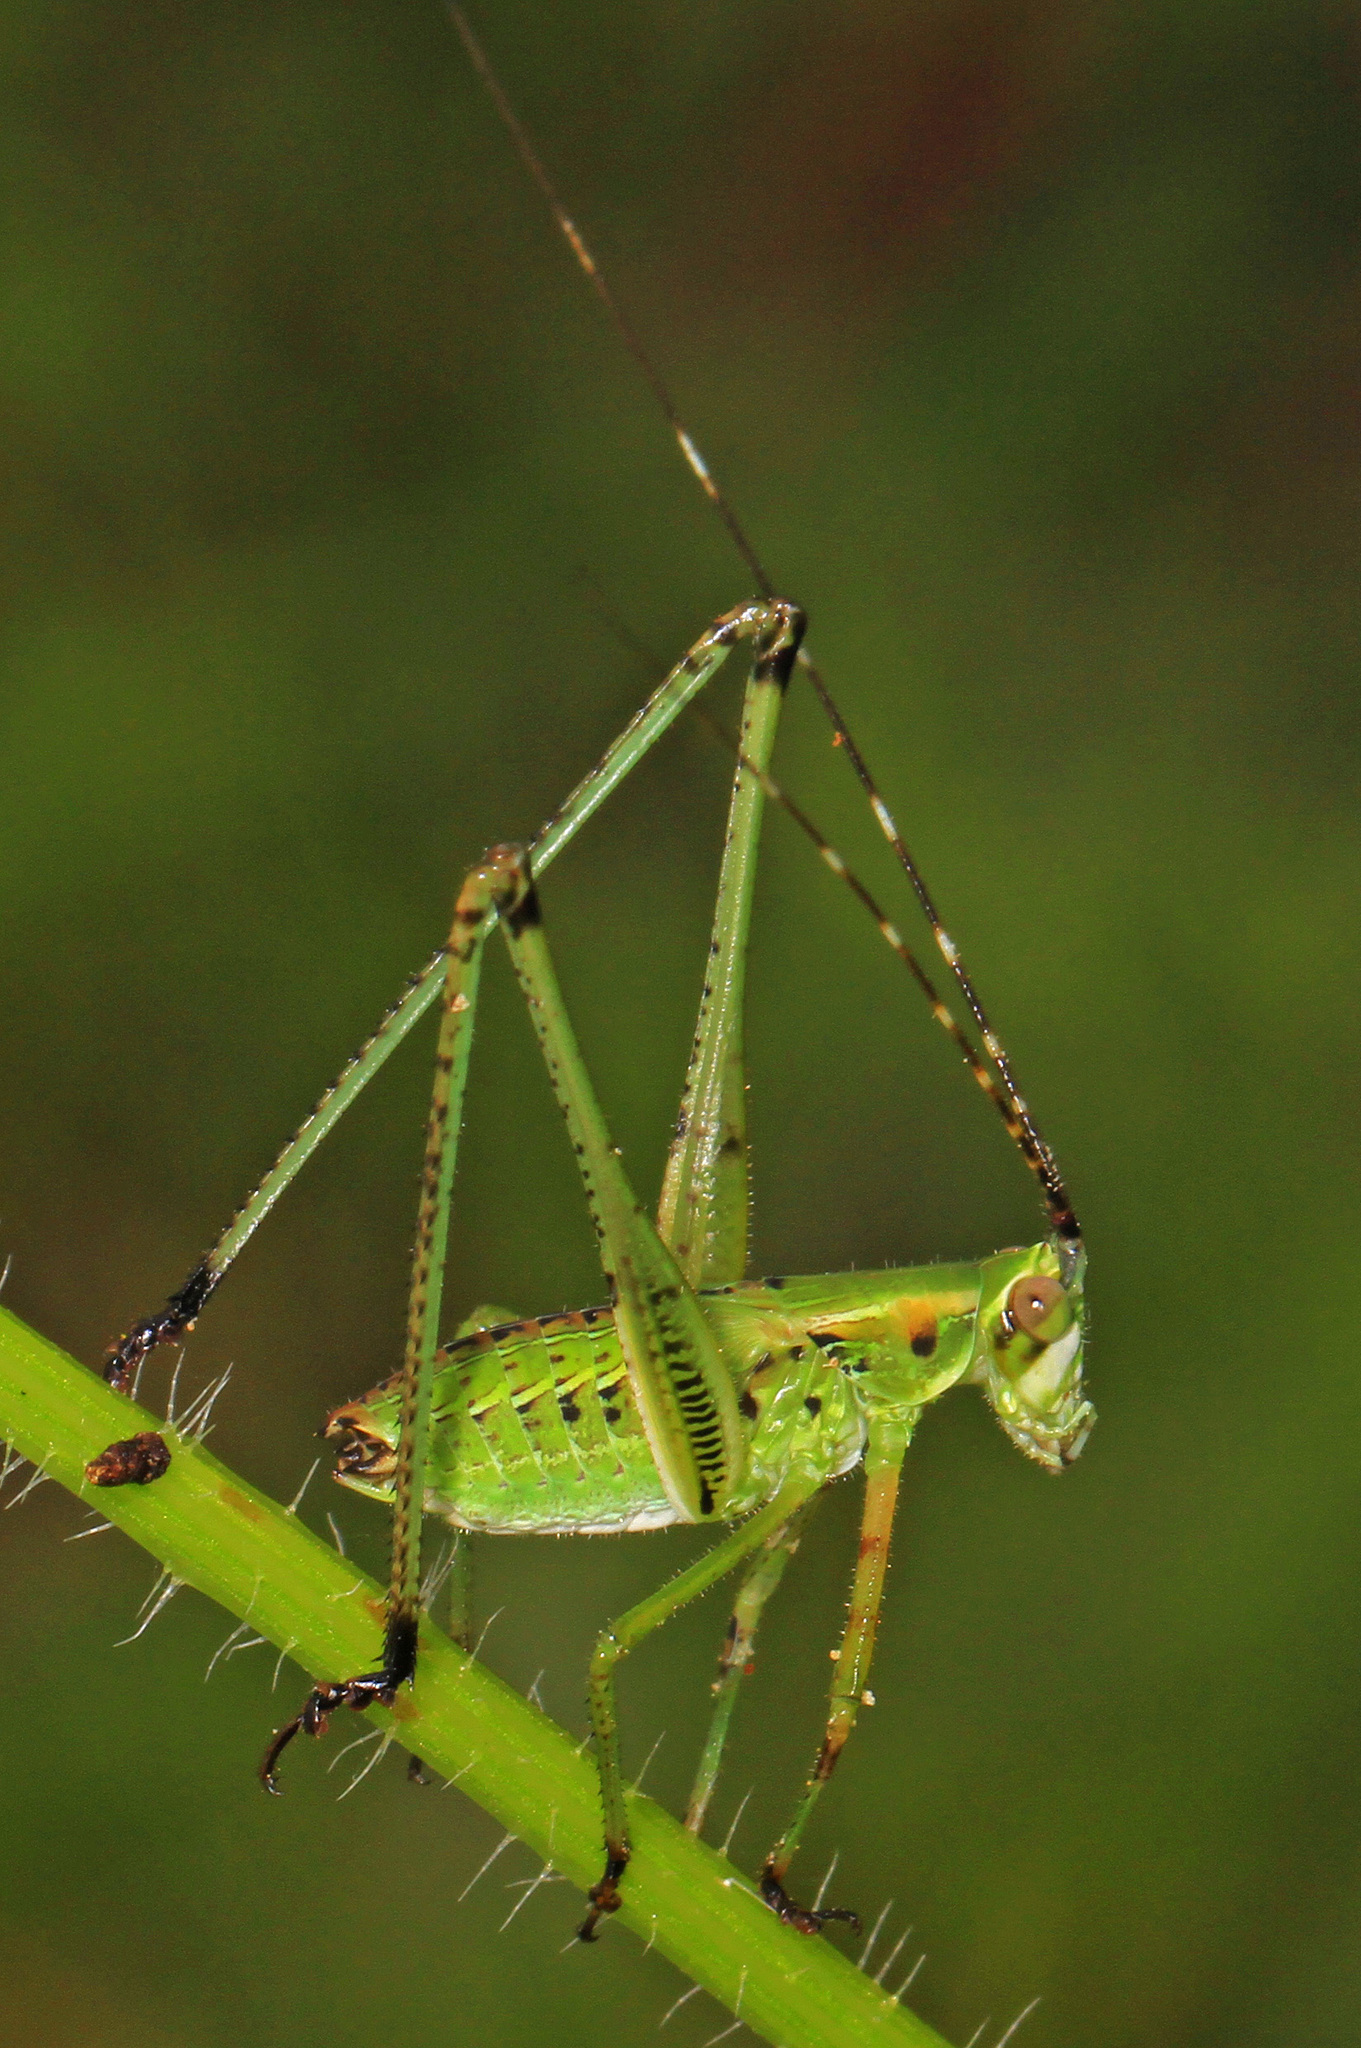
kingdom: Animalia
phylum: Arthropoda
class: Insecta
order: Orthoptera
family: Tettigoniidae
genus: Scudderia
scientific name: Scudderia
